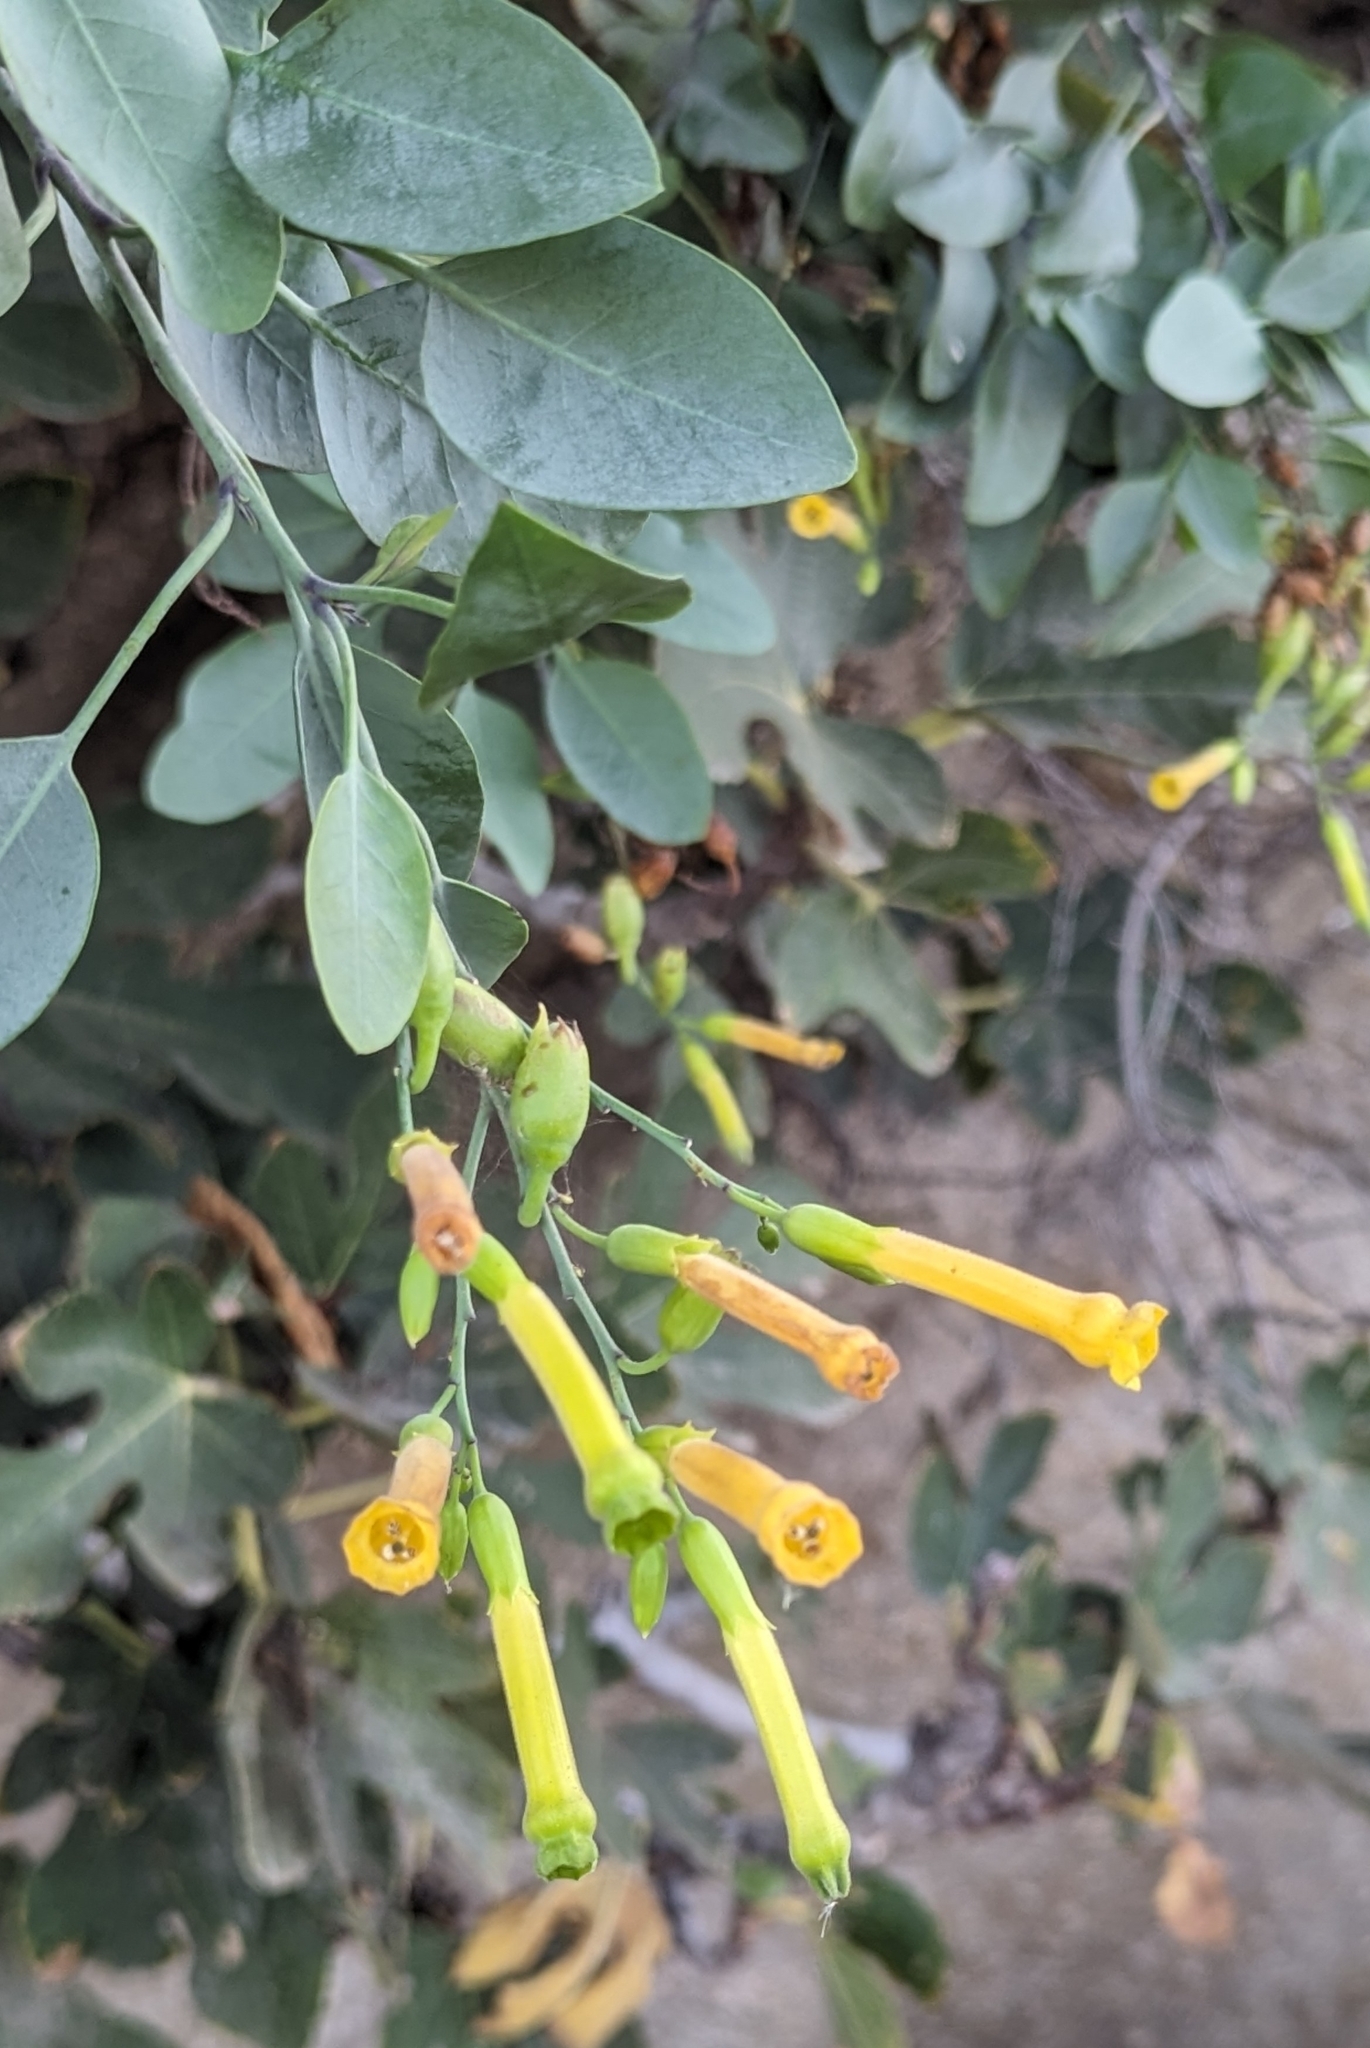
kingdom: Plantae
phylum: Tracheophyta
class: Magnoliopsida
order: Solanales
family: Solanaceae
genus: Nicotiana
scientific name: Nicotiana glauca
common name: Tree tobacco
